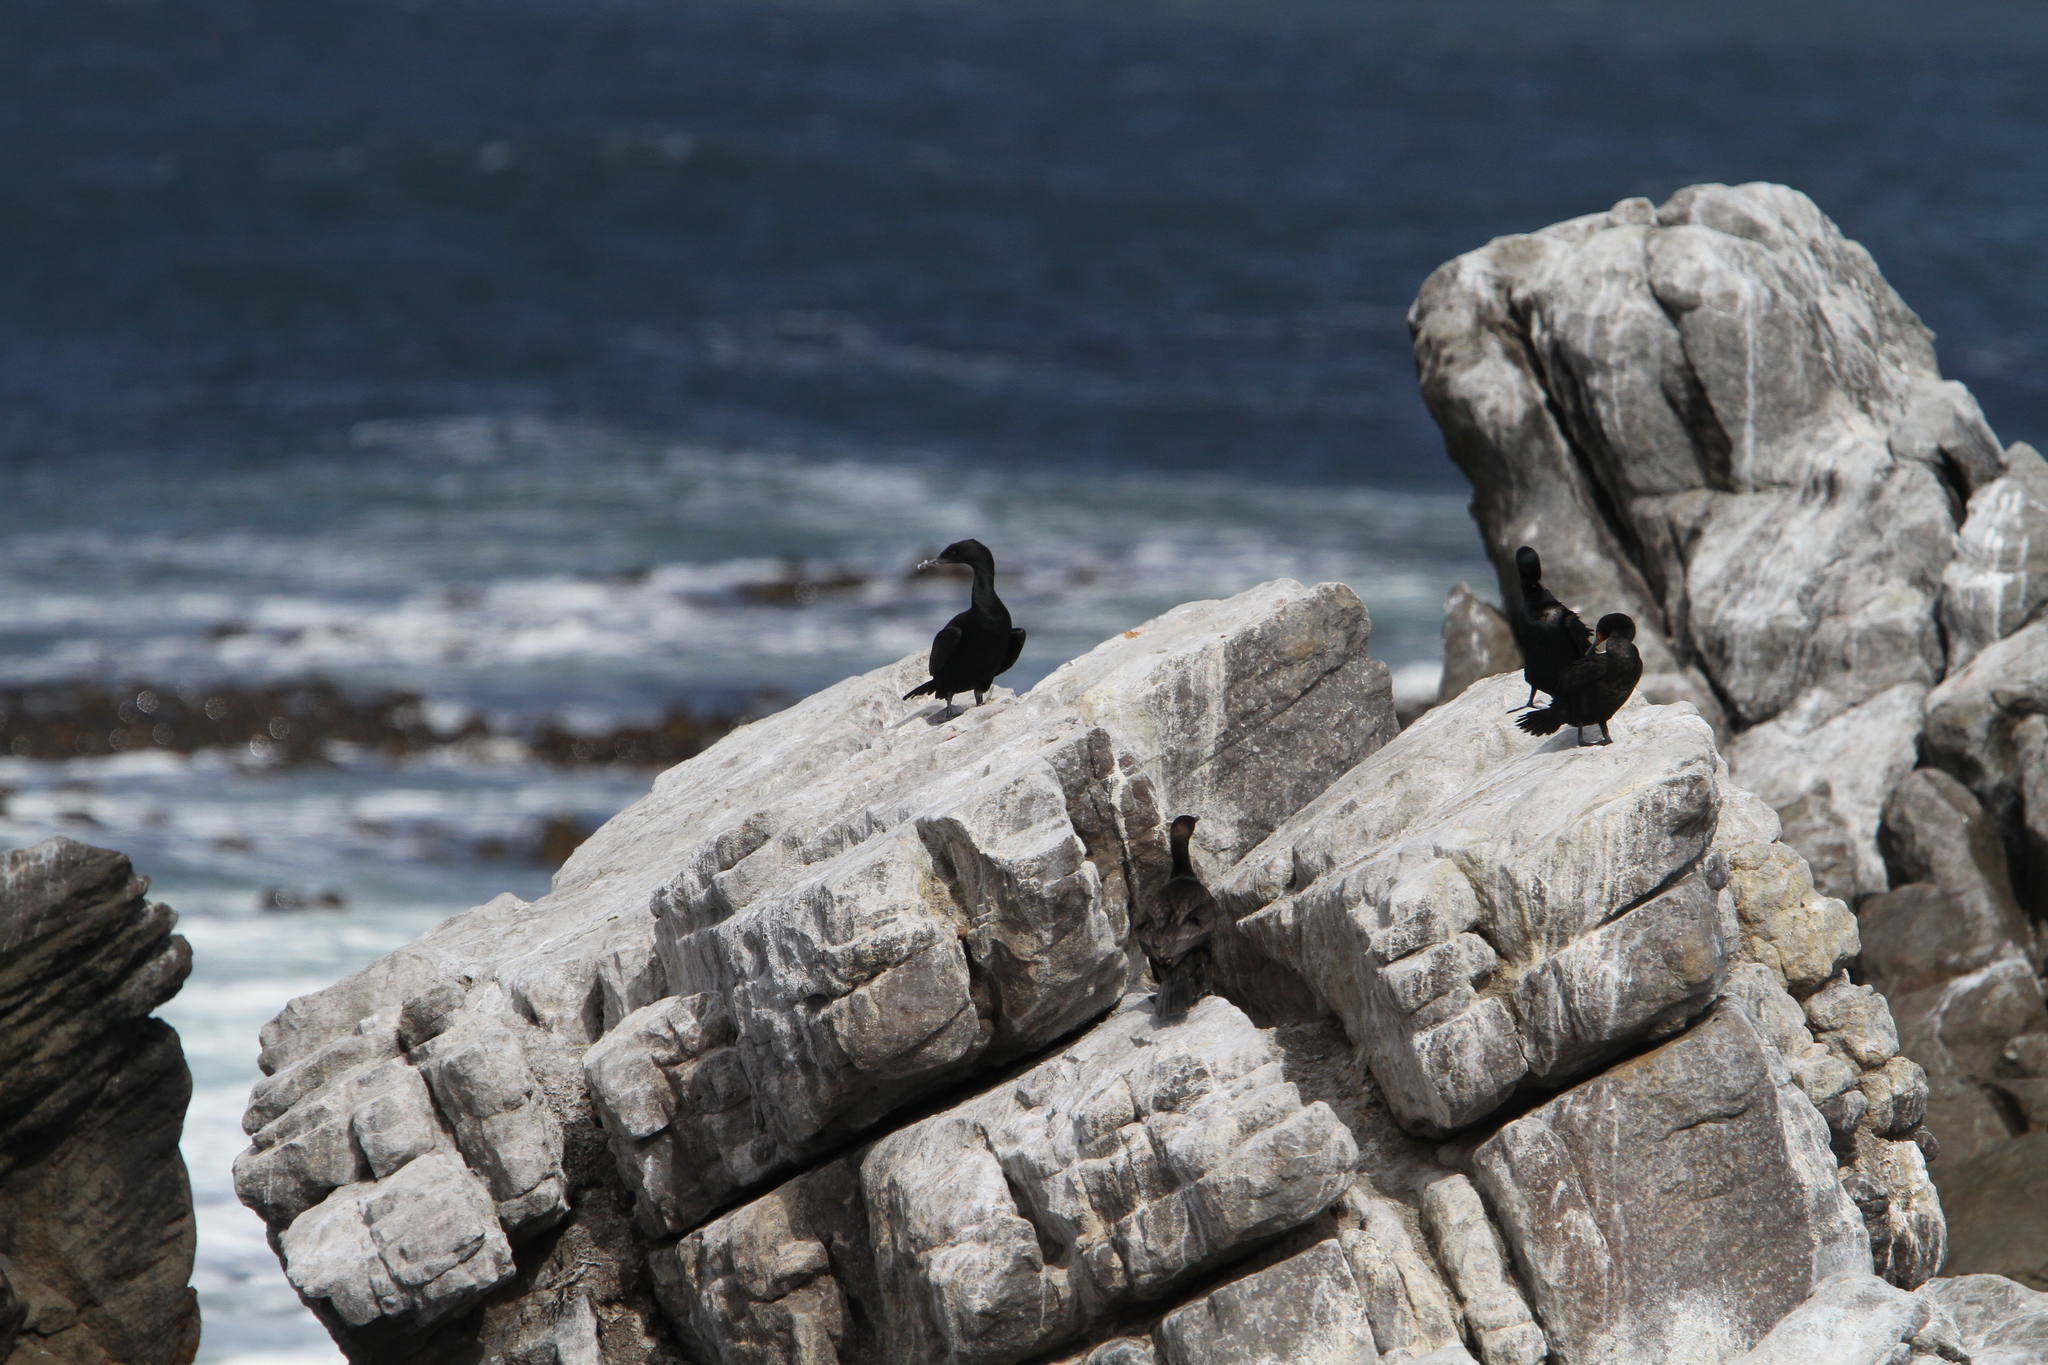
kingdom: Animalia
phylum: Chordata
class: Aves
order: Suliformes
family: Phalacrocoracidae
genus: Phalacrocorax
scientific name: Phalacrocorax neglectus
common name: Bank cormorant
